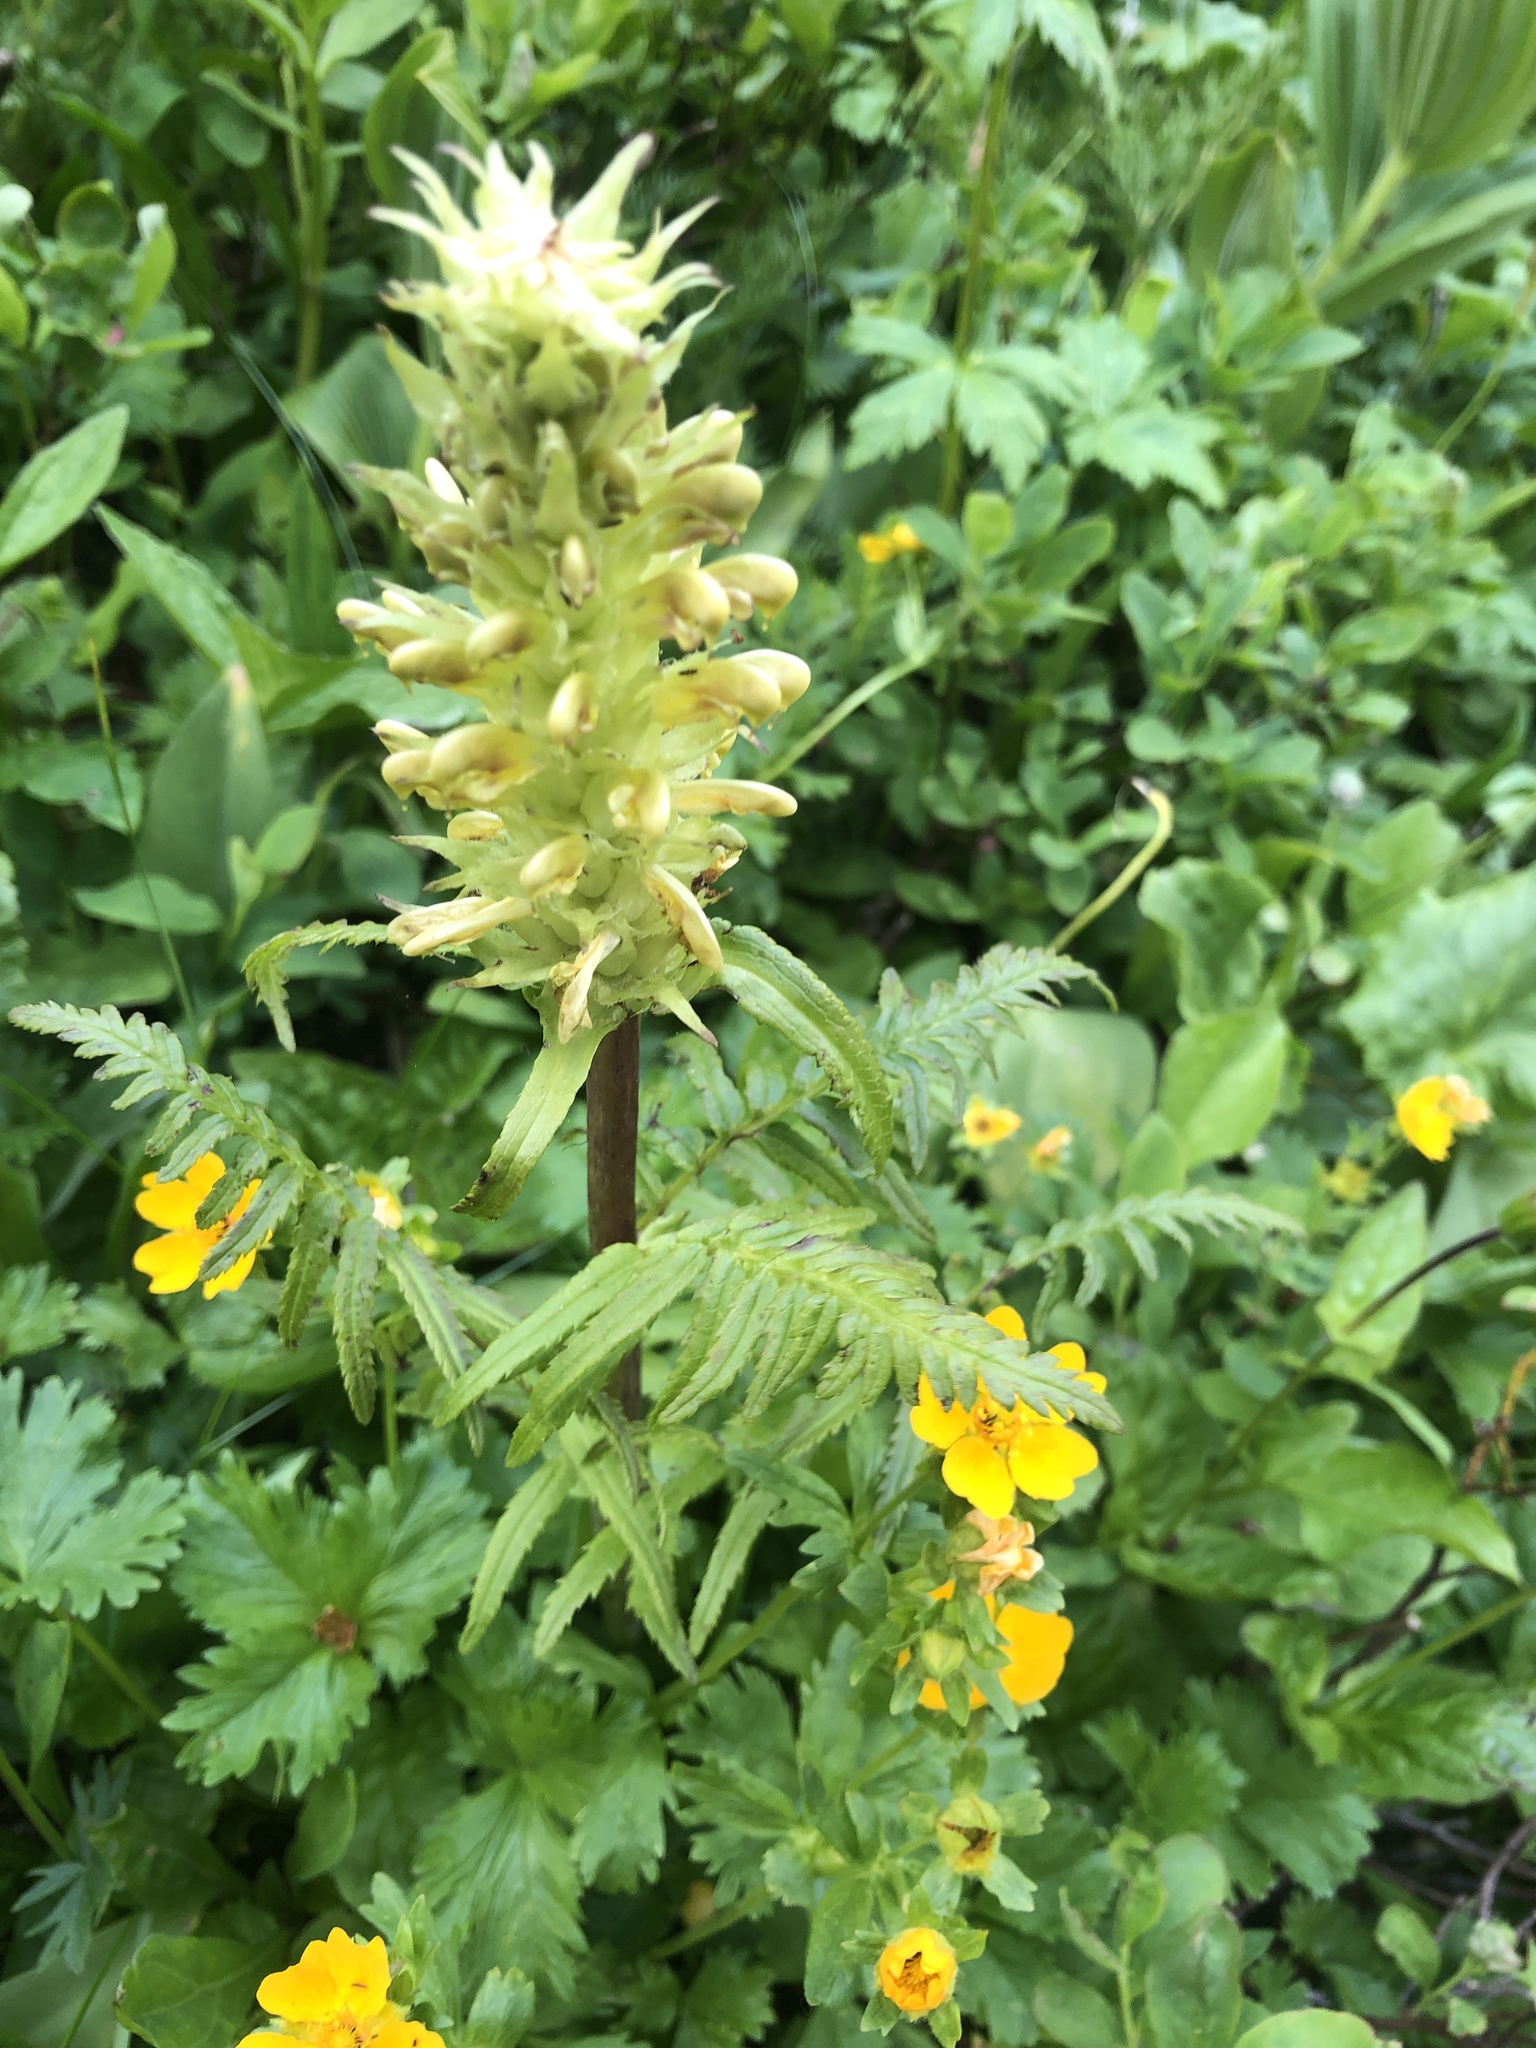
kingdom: Plantae
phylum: Tracheophyta
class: Magnoliopsida
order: Lamiales
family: Orobanchaceae
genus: Pedicularis
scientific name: Pedicularis bracteosa
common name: Bracted lousewort
